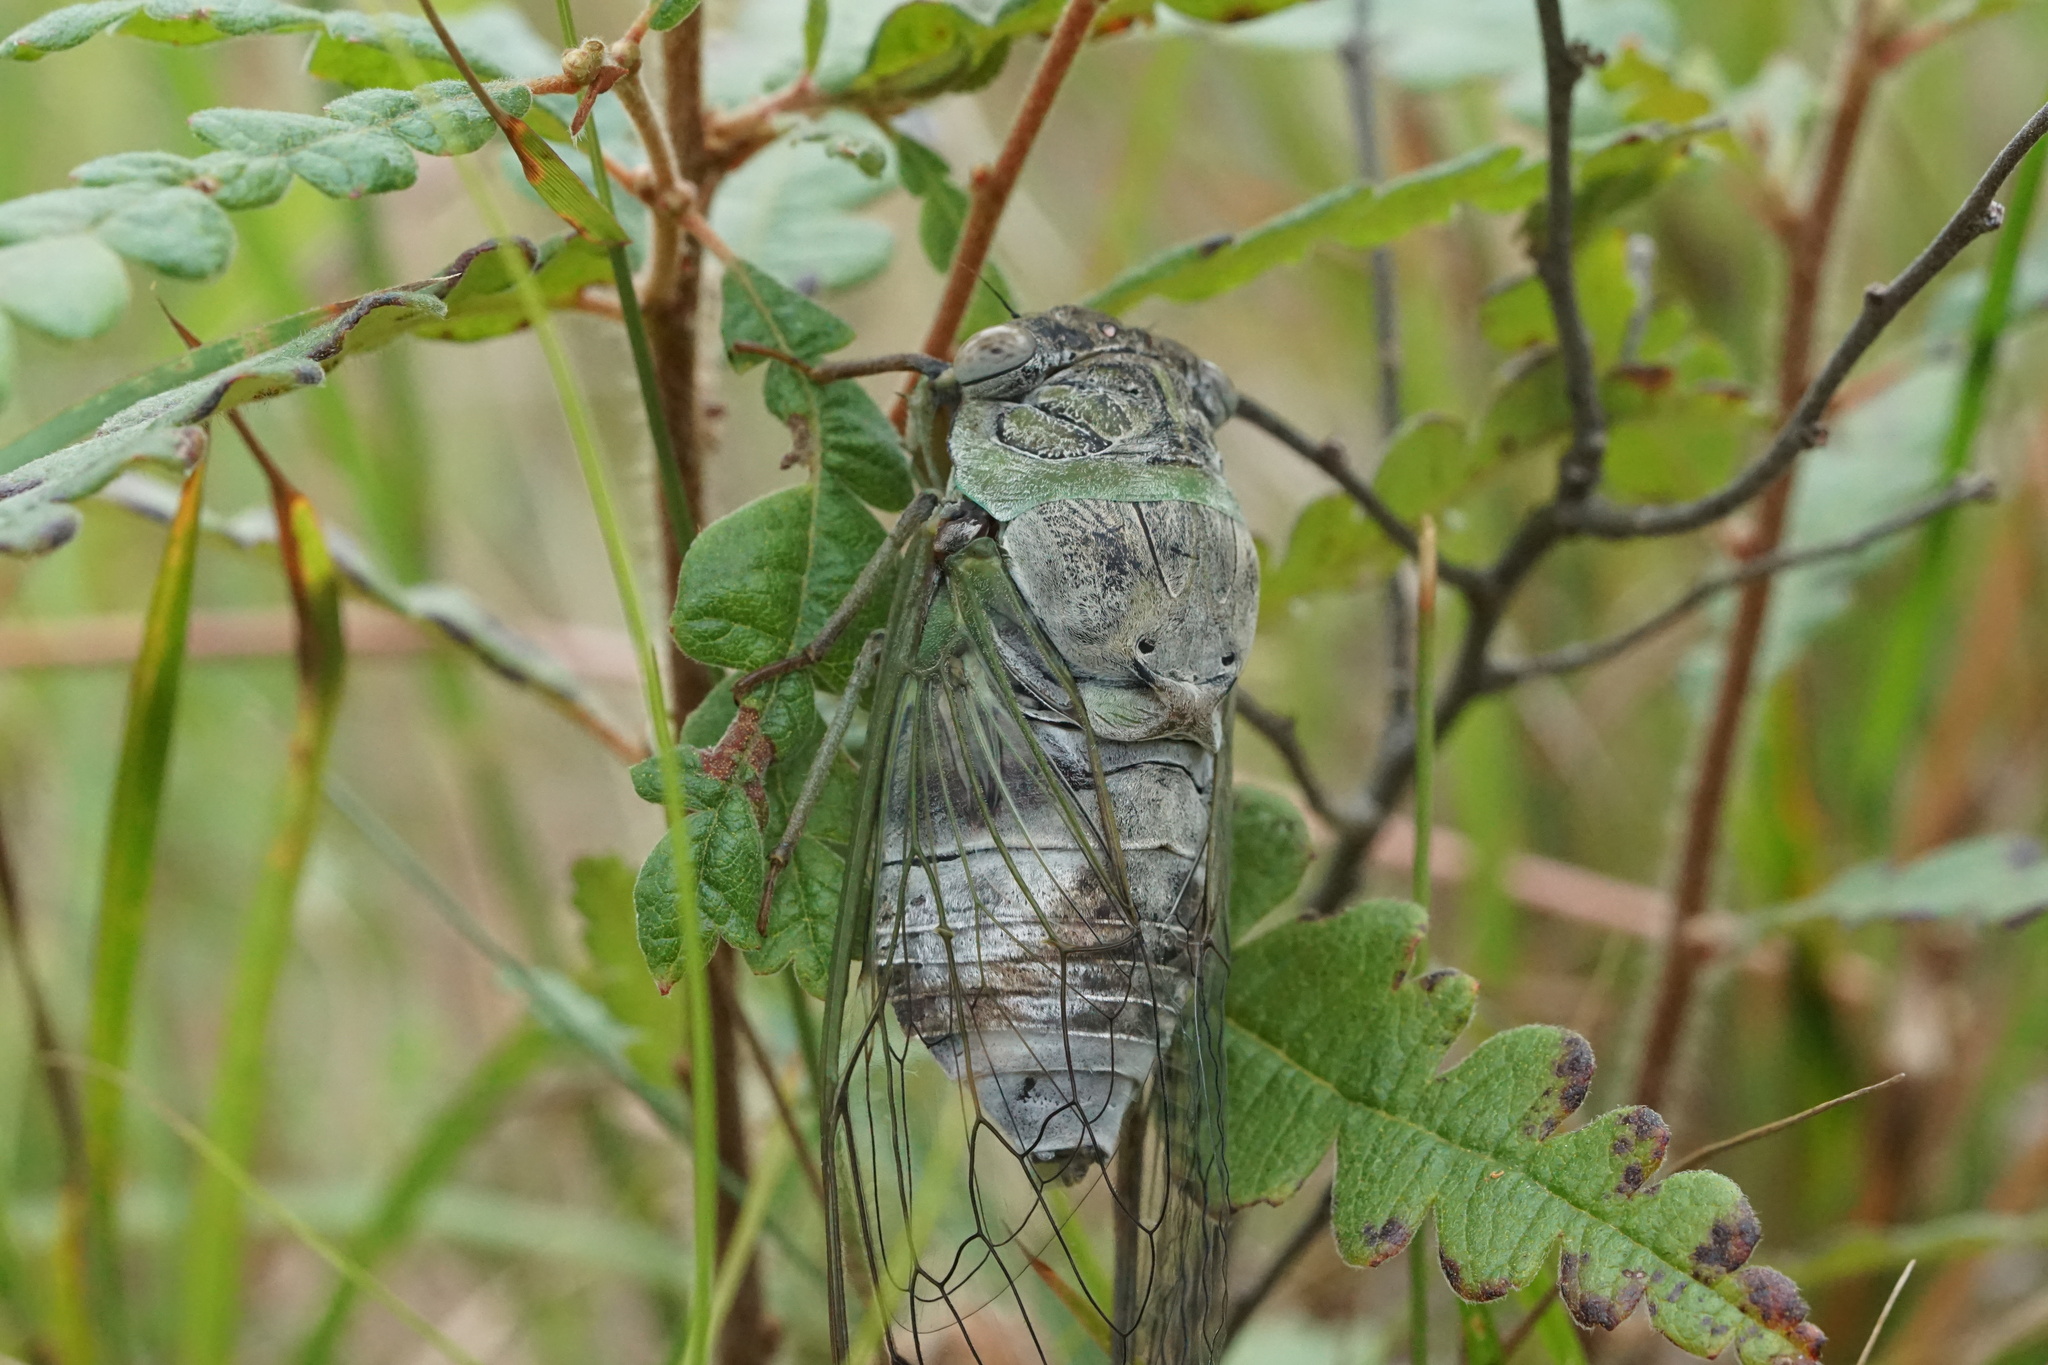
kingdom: Animalia
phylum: Arthropoda
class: Insecta
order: Hemiptera
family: Cicadidae
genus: Diceroprocta
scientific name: Diceroprocta grossa
